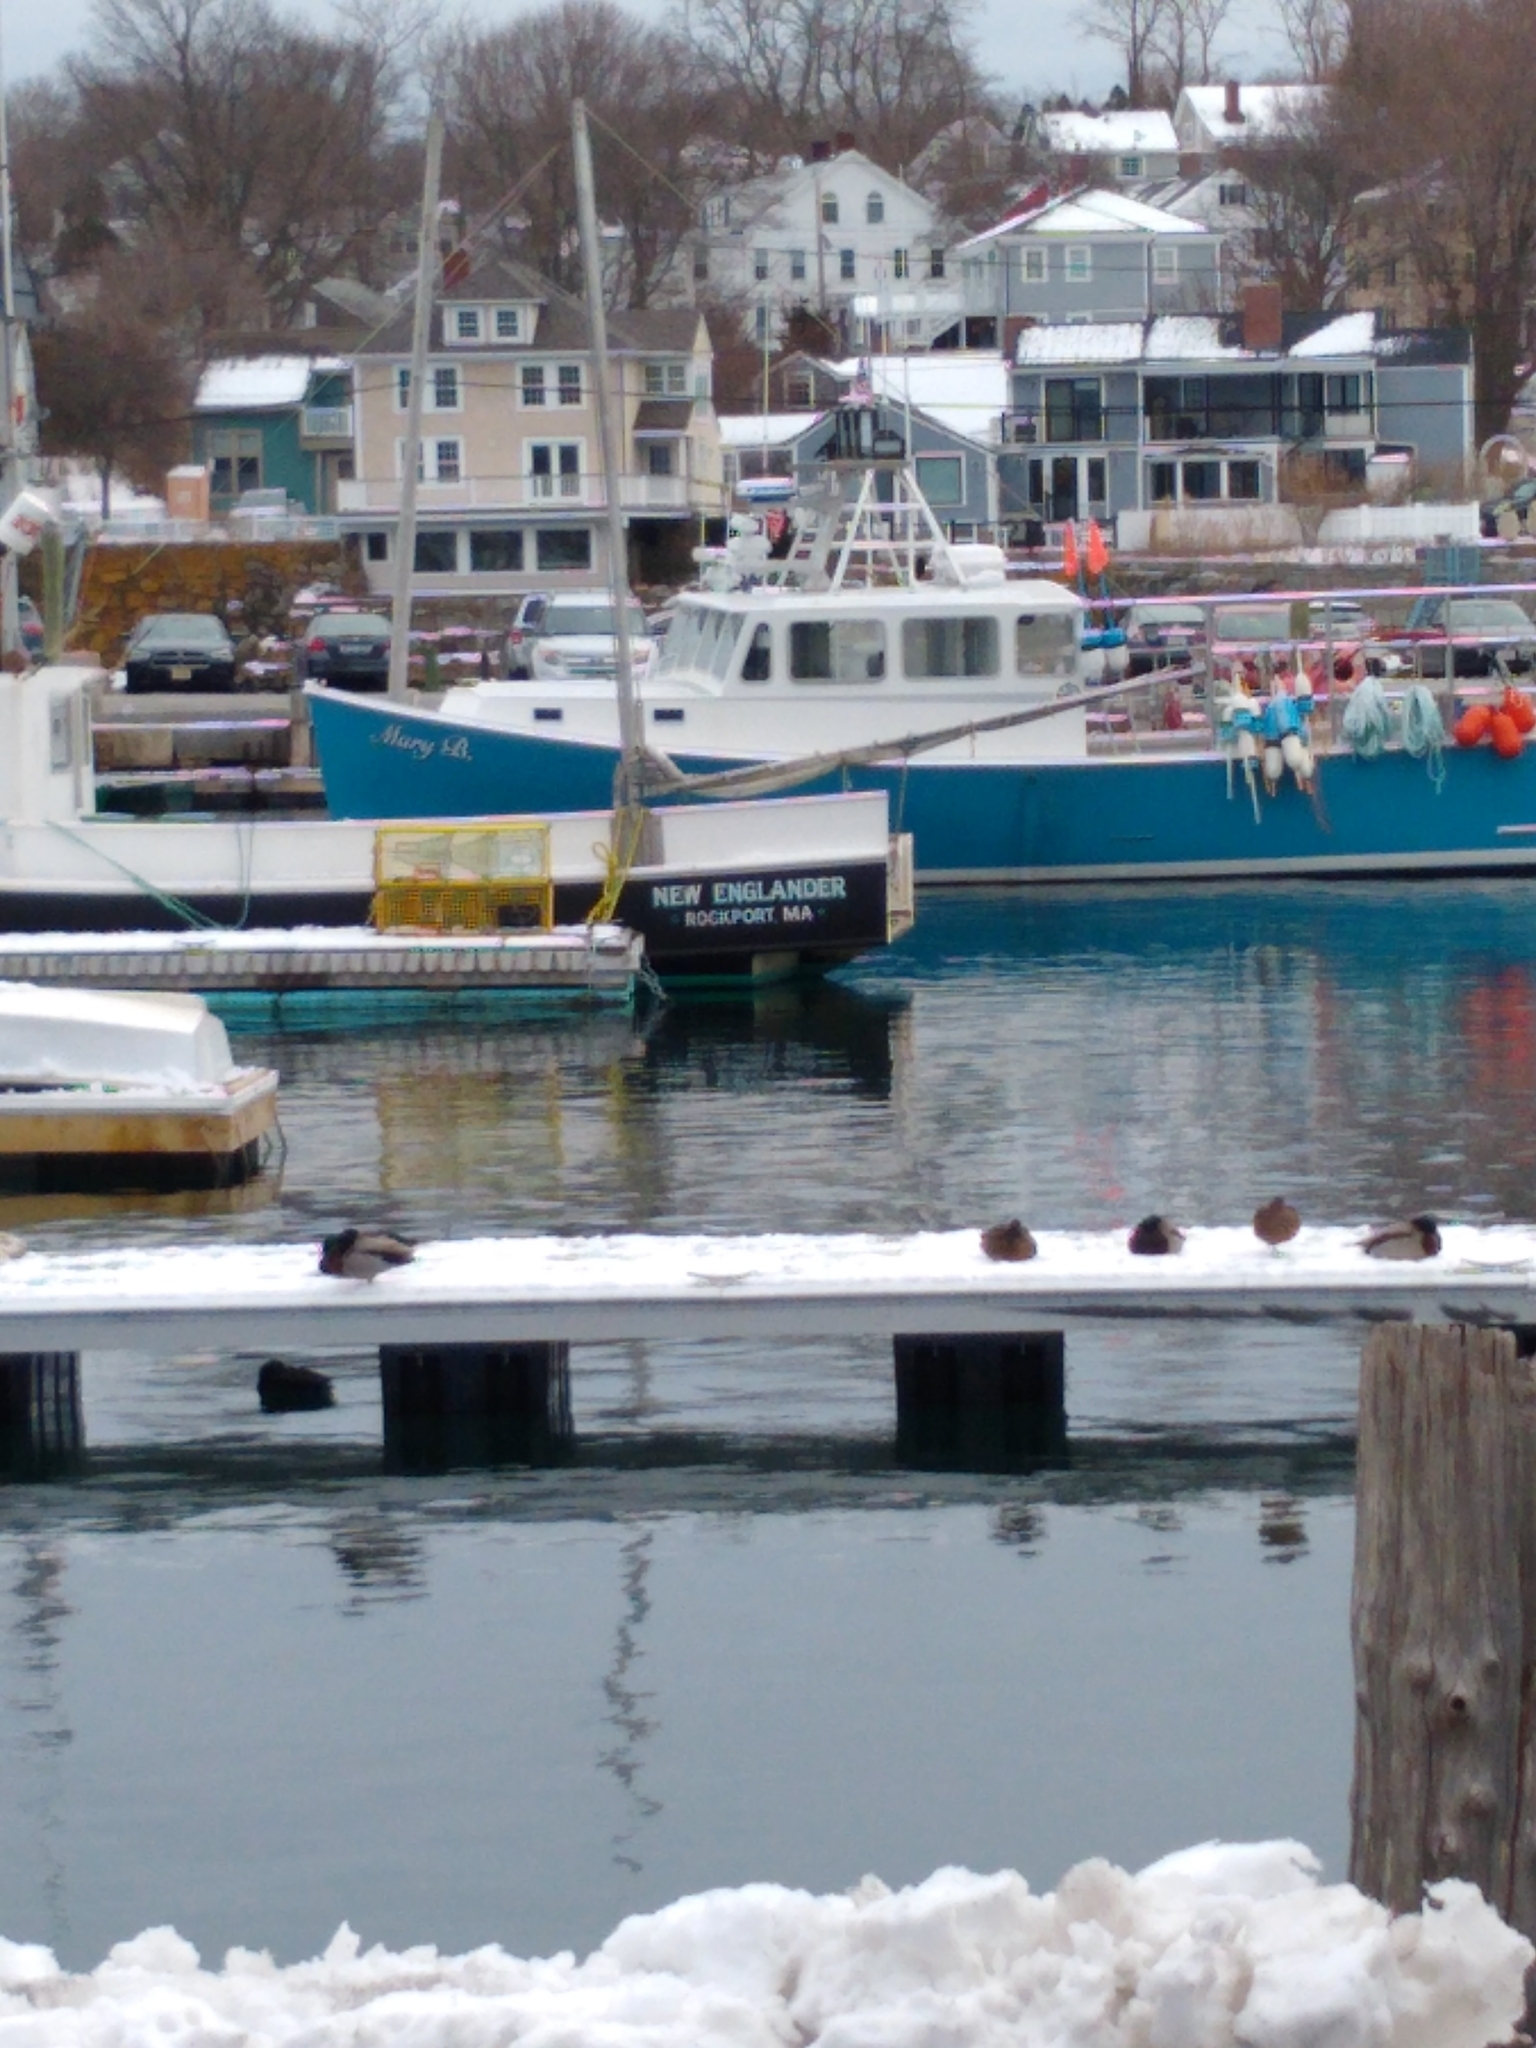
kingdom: Animalia
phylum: Chordata
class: Aves
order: Anseriformes
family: Anatidae
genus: Anas
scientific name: Anas platyrhynchos
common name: Mallard
